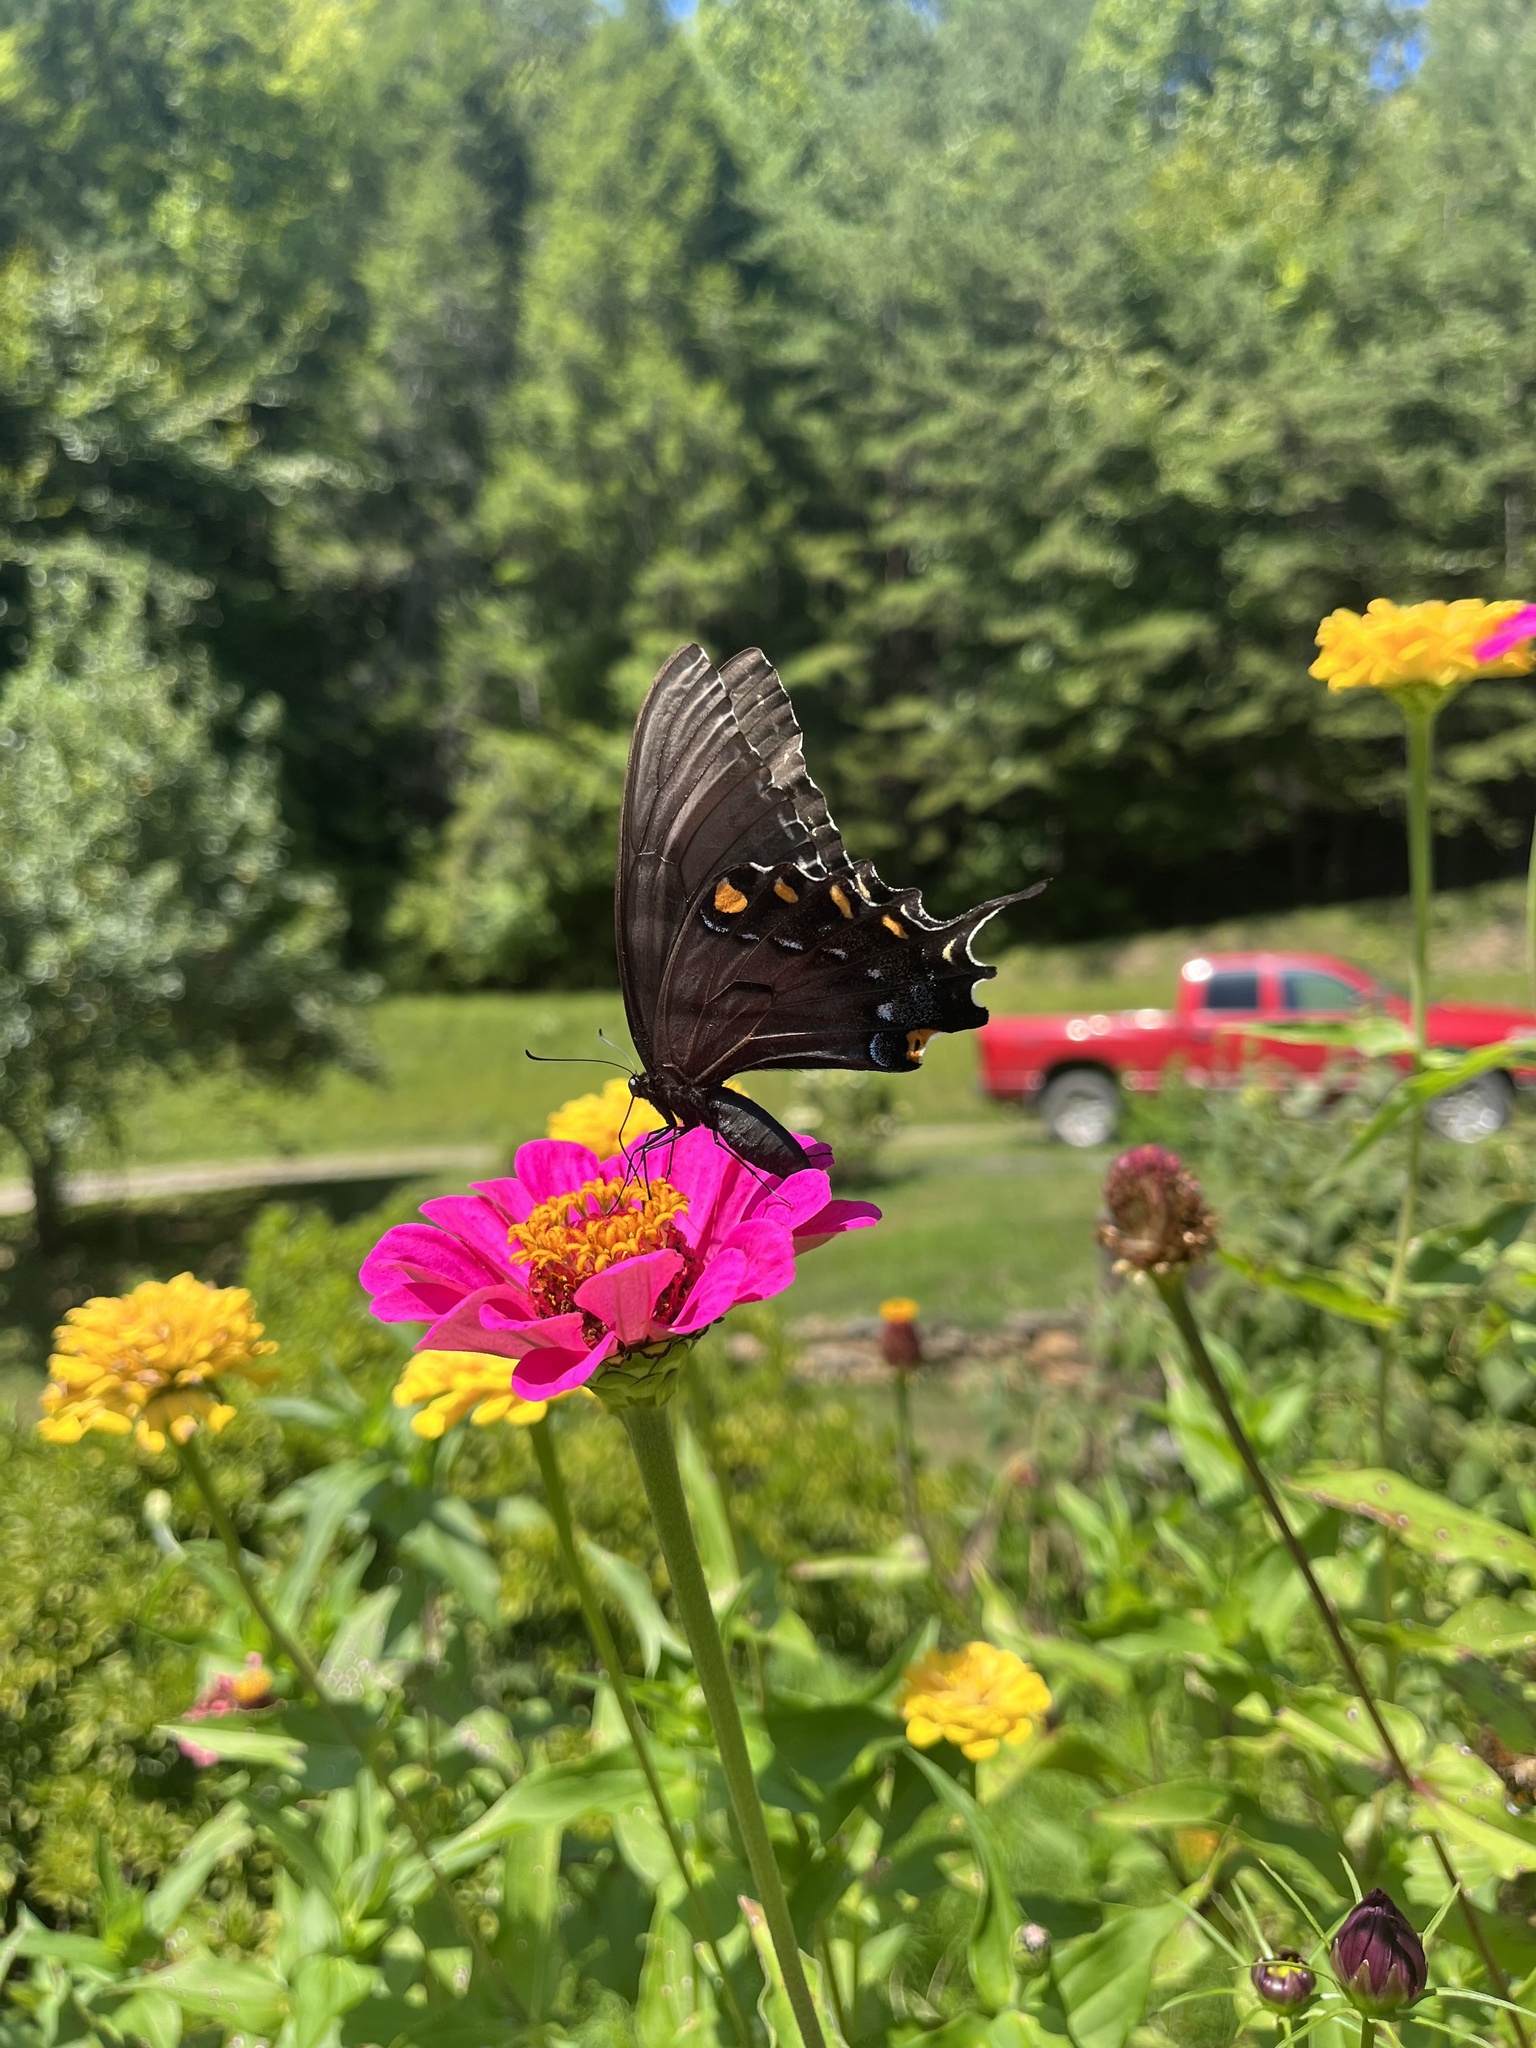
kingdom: Animalia
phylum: Arthropoda
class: Insecta
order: Lepidoptera
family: Papilionidae
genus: Papilio
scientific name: Papilio glaucus
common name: Tiger swallowtail
